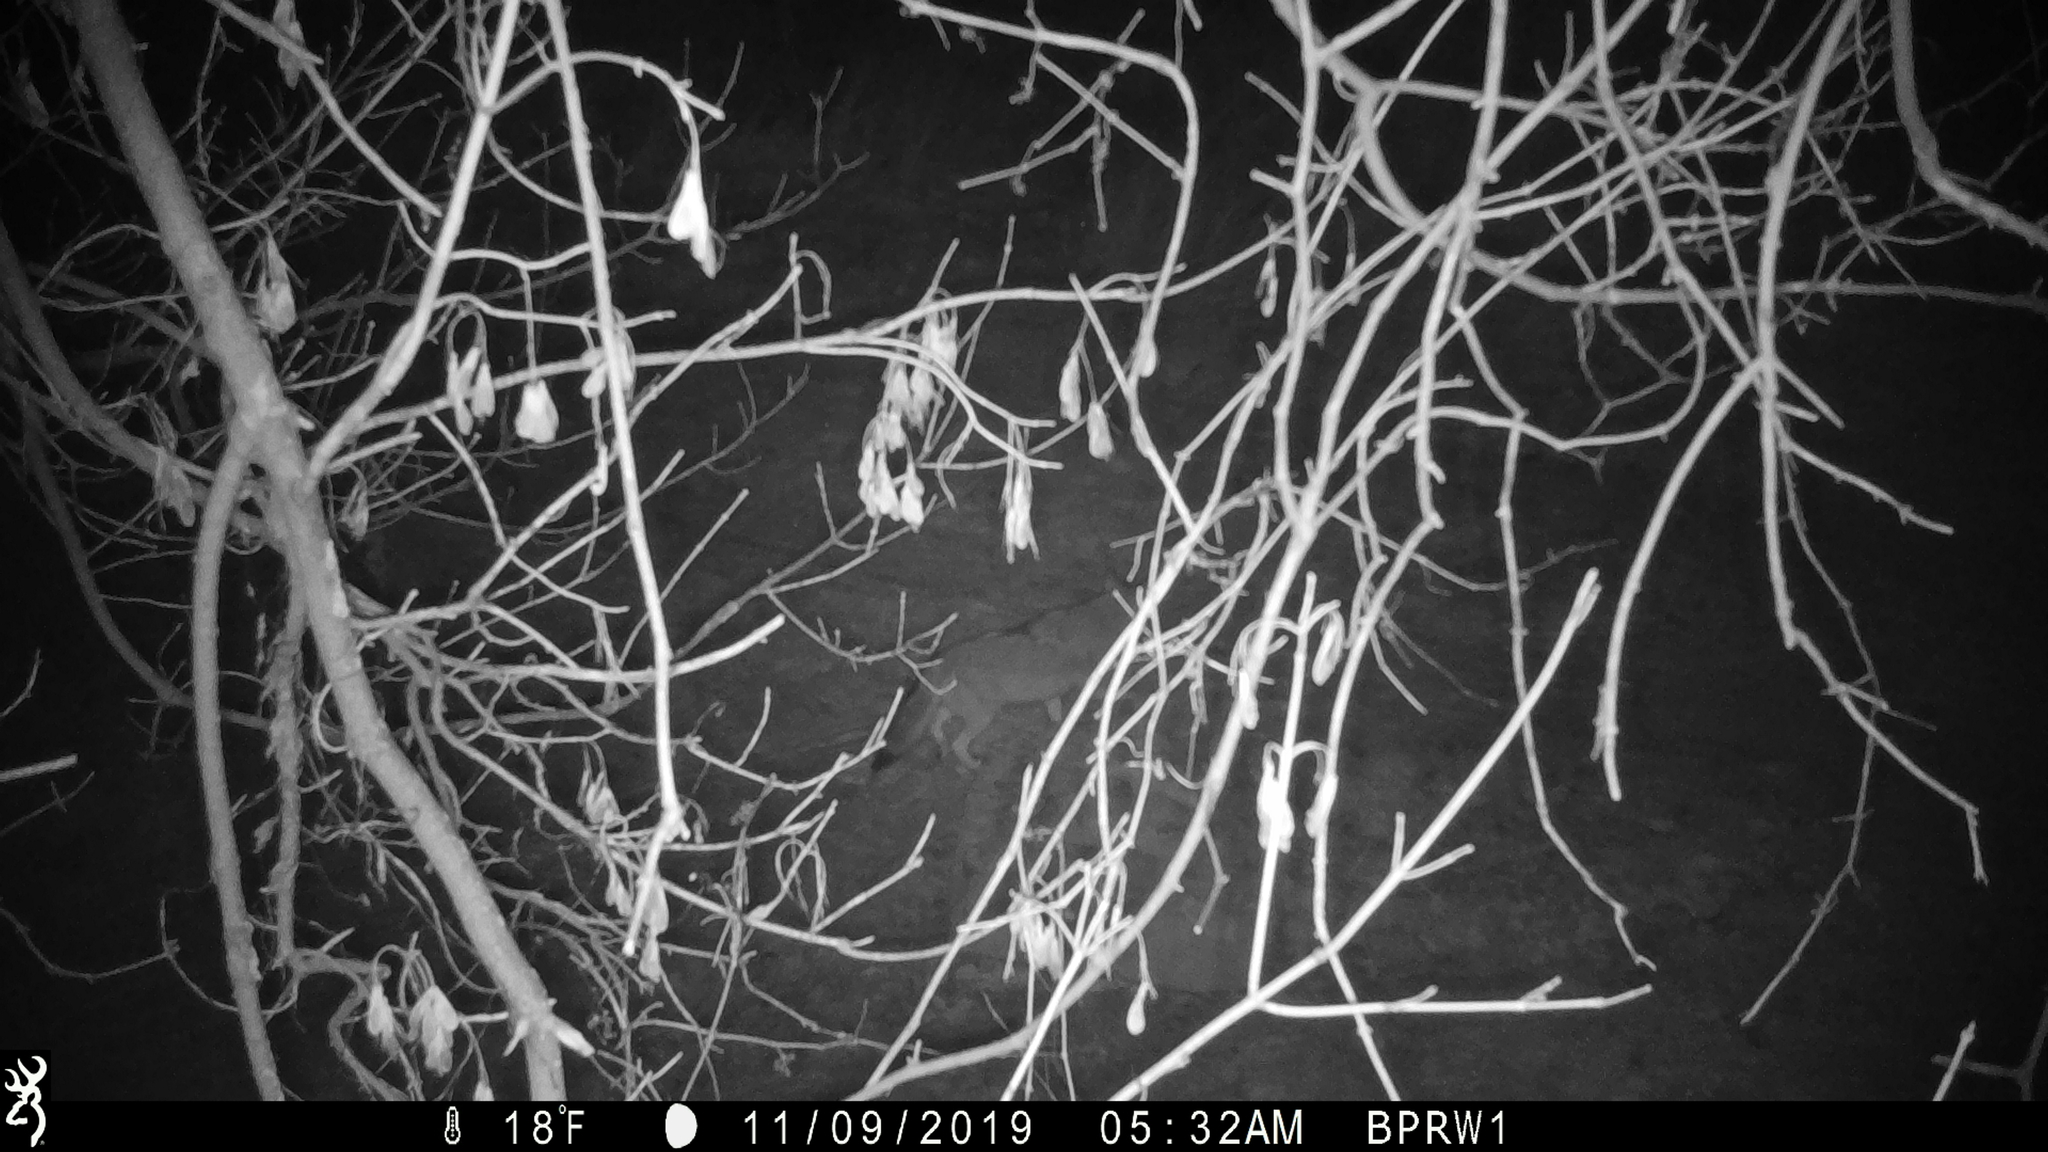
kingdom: Animalia
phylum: Chordata
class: Mammalia
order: Carnivora
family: Canidae
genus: Canis
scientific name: Canis latrans
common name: Coyote
